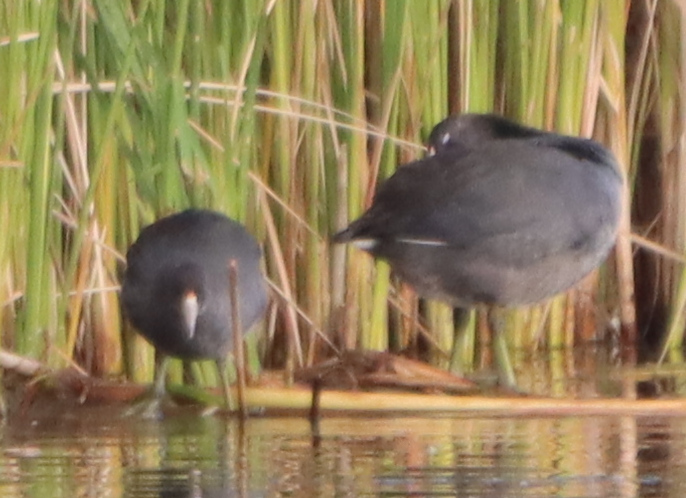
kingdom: Animalia
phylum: Chordata
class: Aves
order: Gruiformes
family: Rallidae
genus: Fulica
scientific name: Fulica americana
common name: American coot
